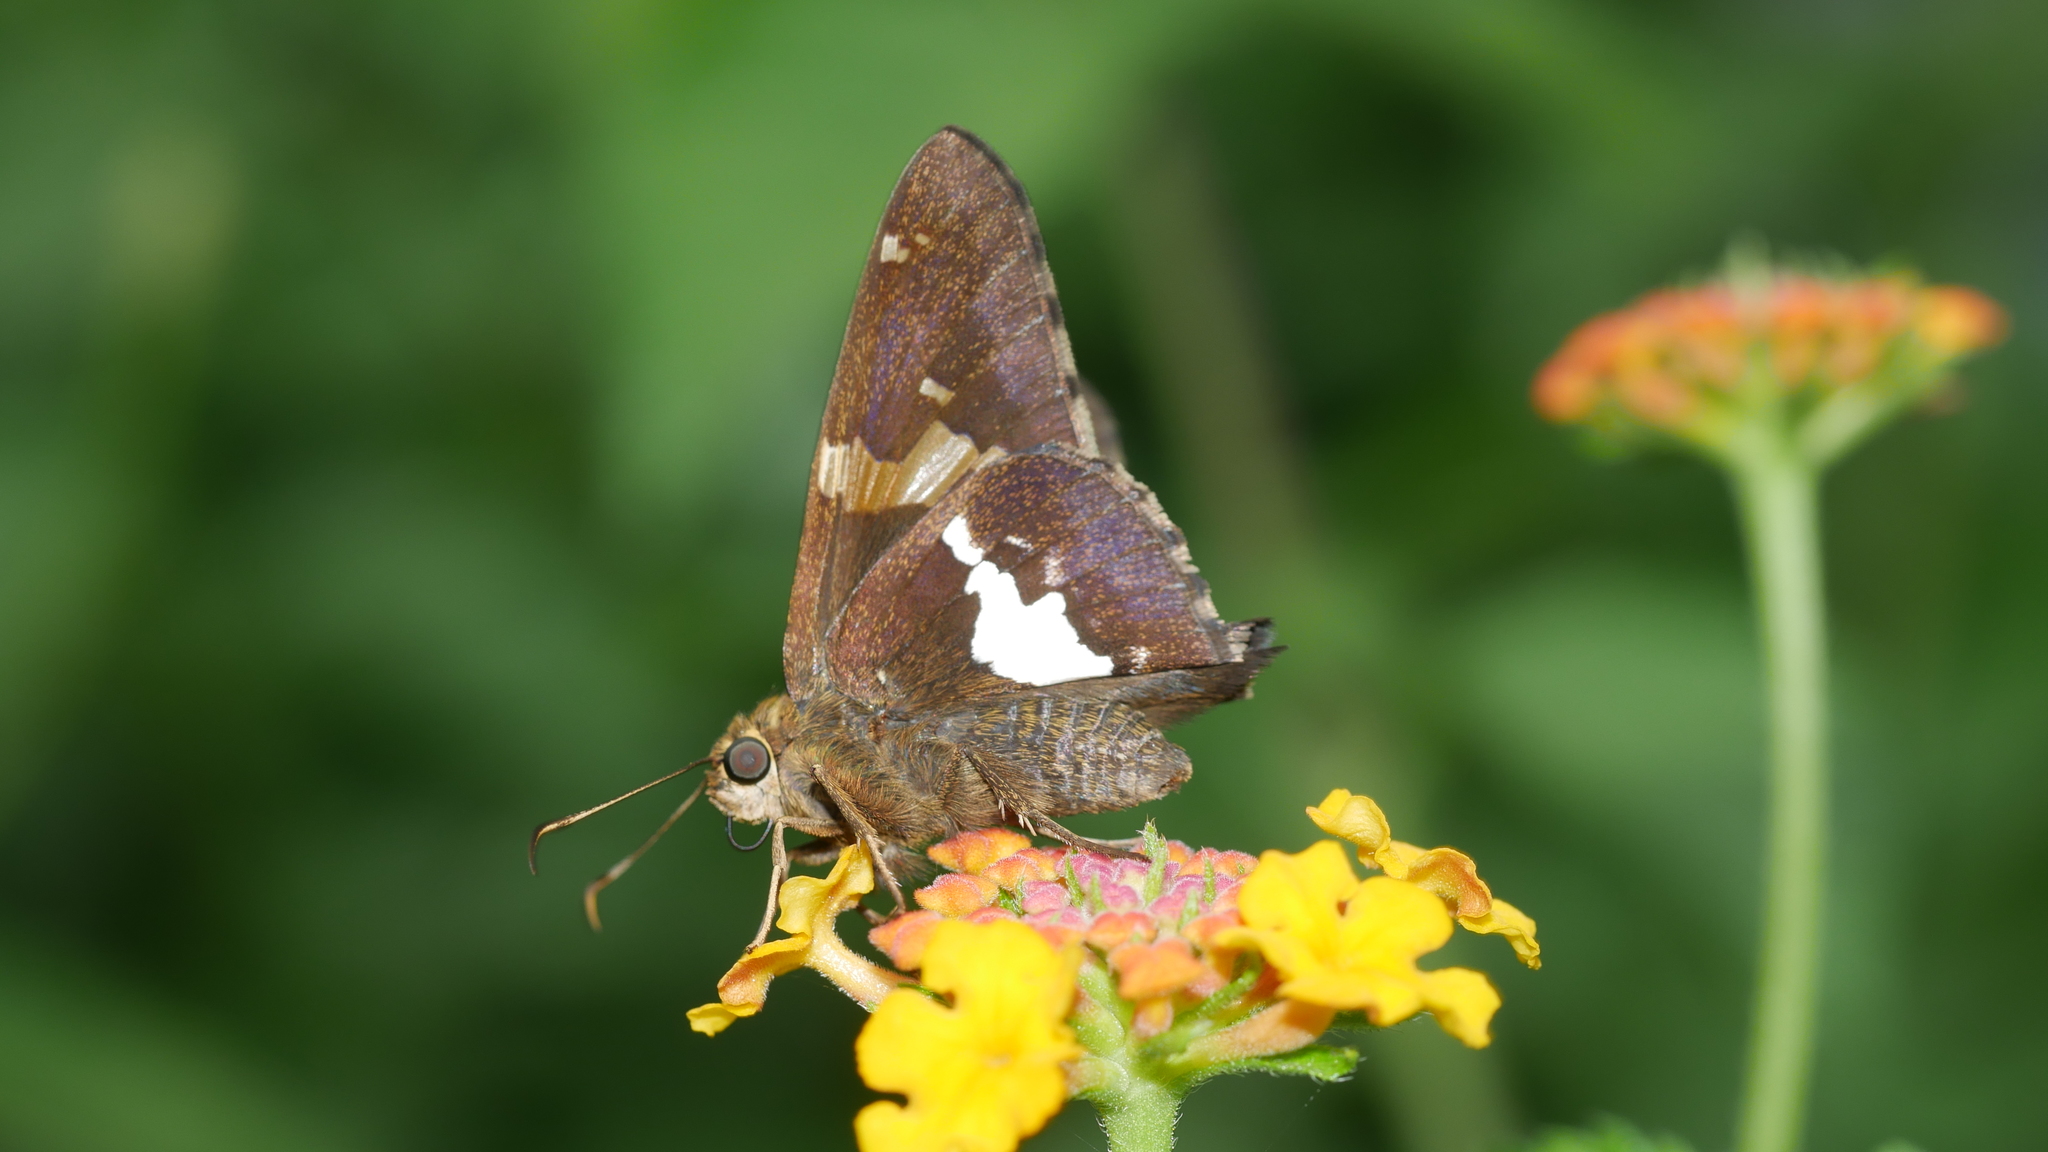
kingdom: Animalia
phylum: Arthropoda
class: Insecta
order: Lepidoptera
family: Hesperiidae
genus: Epargyreus
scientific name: Epargyreus clarus
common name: Silver-spotted skipper
